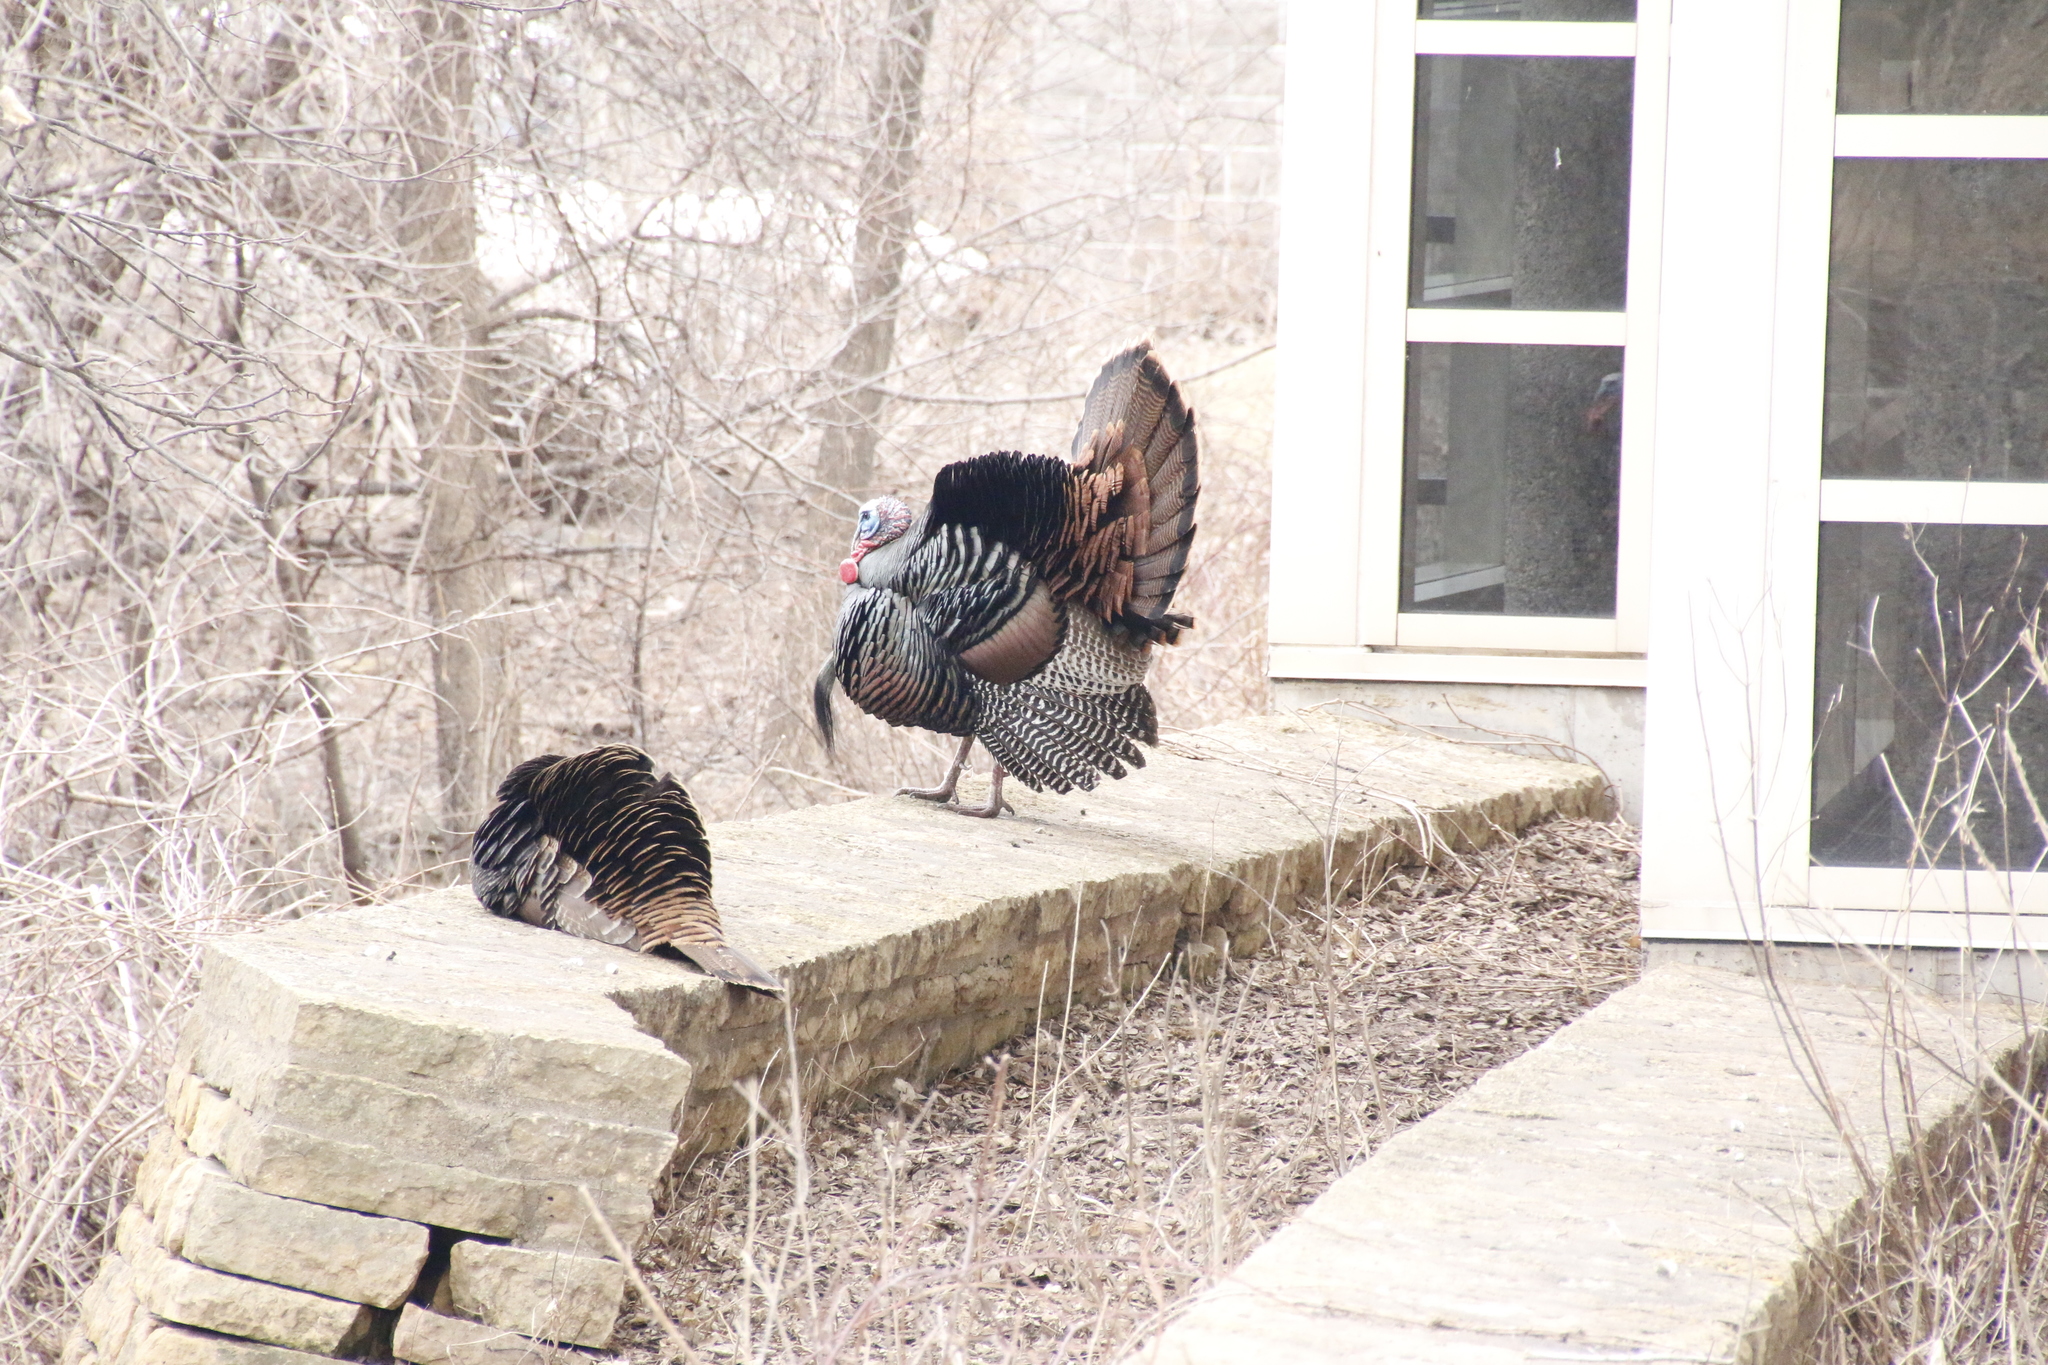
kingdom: Animalia
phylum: Chordata
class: Aves
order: Galliformes
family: Phasianidae
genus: Meleagris
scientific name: Meleagris gallopavo
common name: Wild turkey
